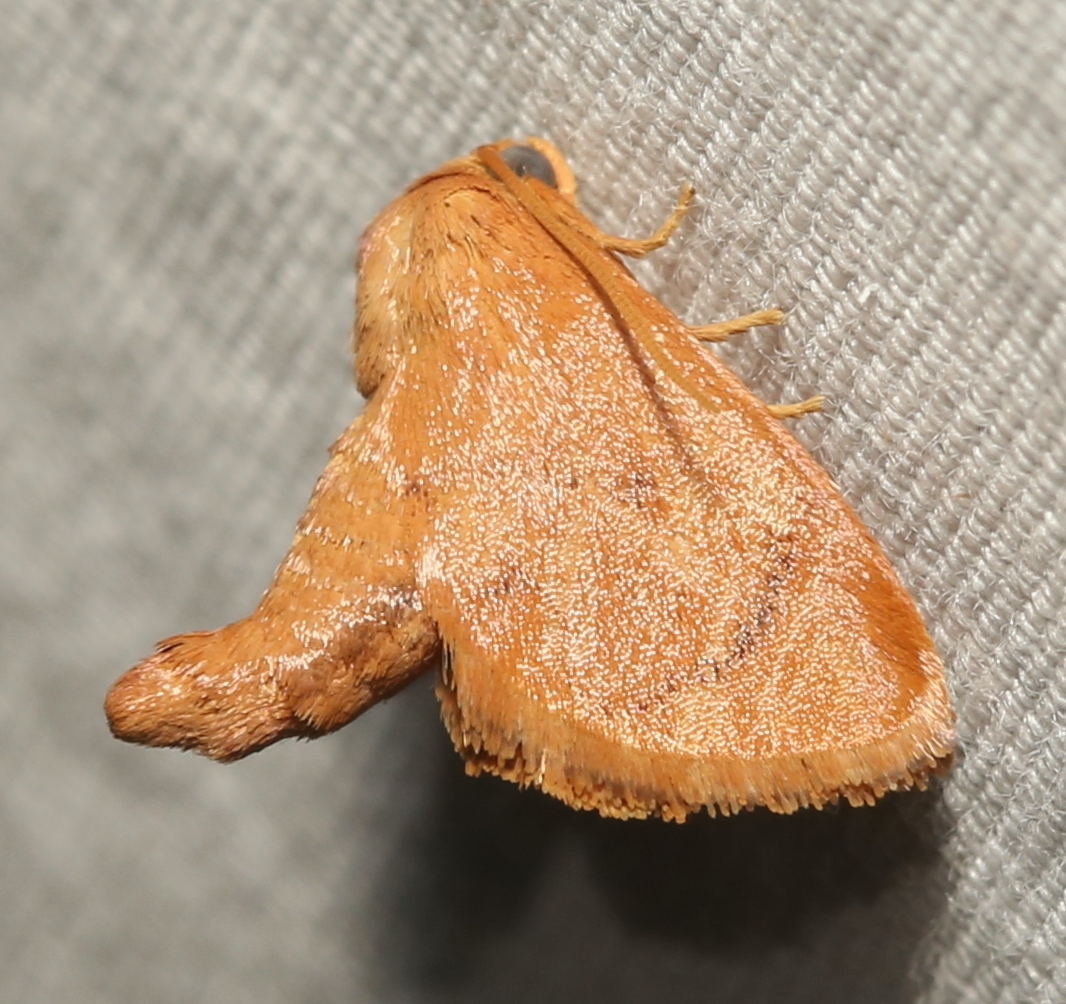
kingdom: Animalia
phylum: Arthropoda
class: Insecta
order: Lepidoptera
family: Limacodidae
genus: Tortricidia
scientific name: Tortricidia flexuosa
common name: Abbreviated button slug moth
